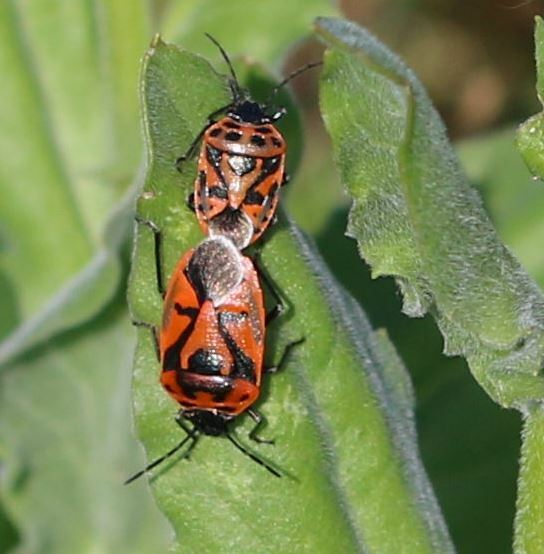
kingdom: Animalia
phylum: Arthropoda
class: Insecta
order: Hemiptera
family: Pentatomidae
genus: Eurydema
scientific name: Eurydema ornata
